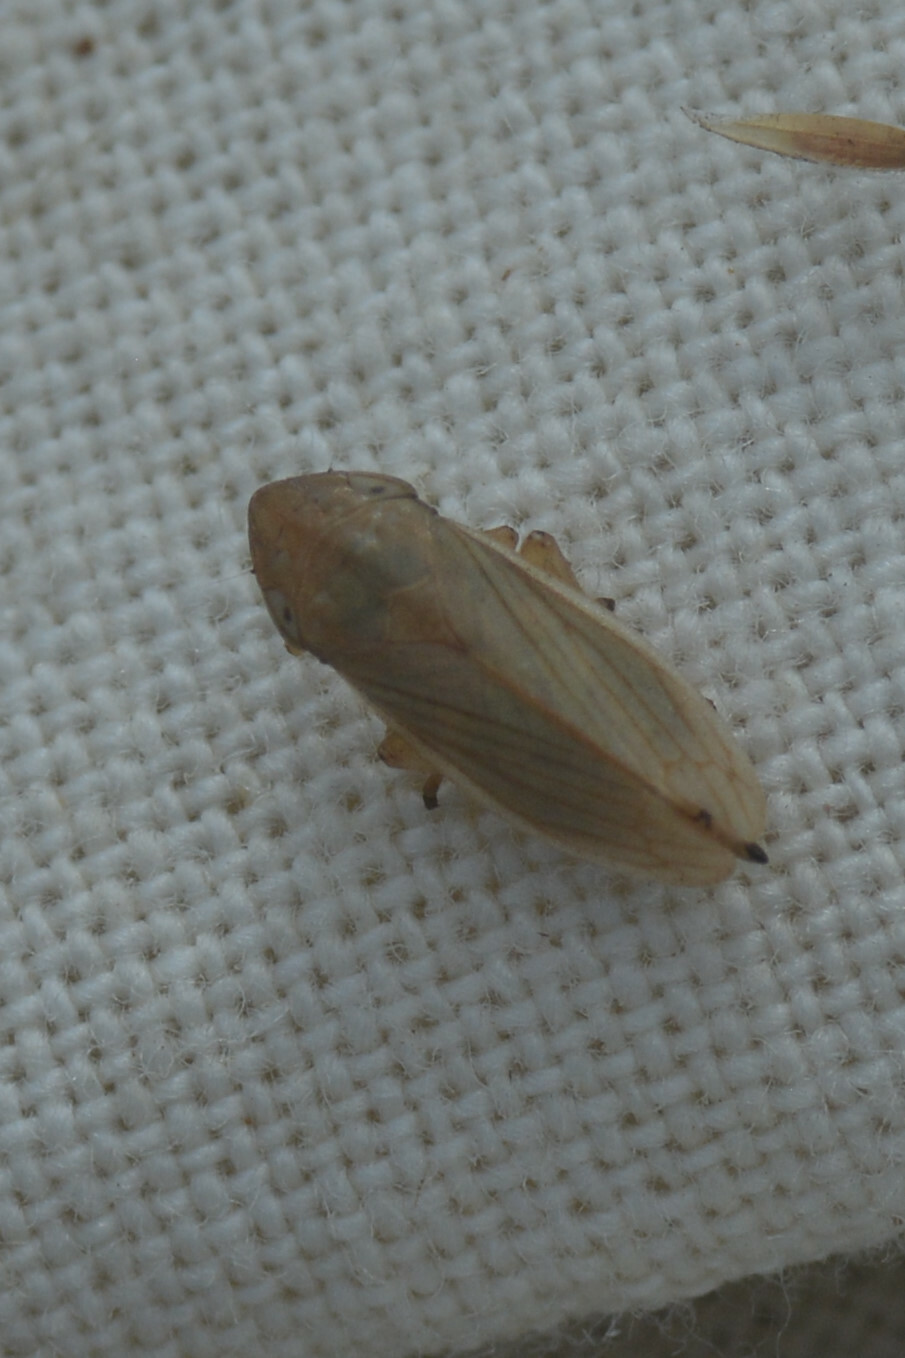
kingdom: Animalia
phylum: Arthropoda
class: Insecta
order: Hemiptera
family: Aphrophoridae
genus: Neophilaenus
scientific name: Neophilaenus lineatus
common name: Spittlebug
